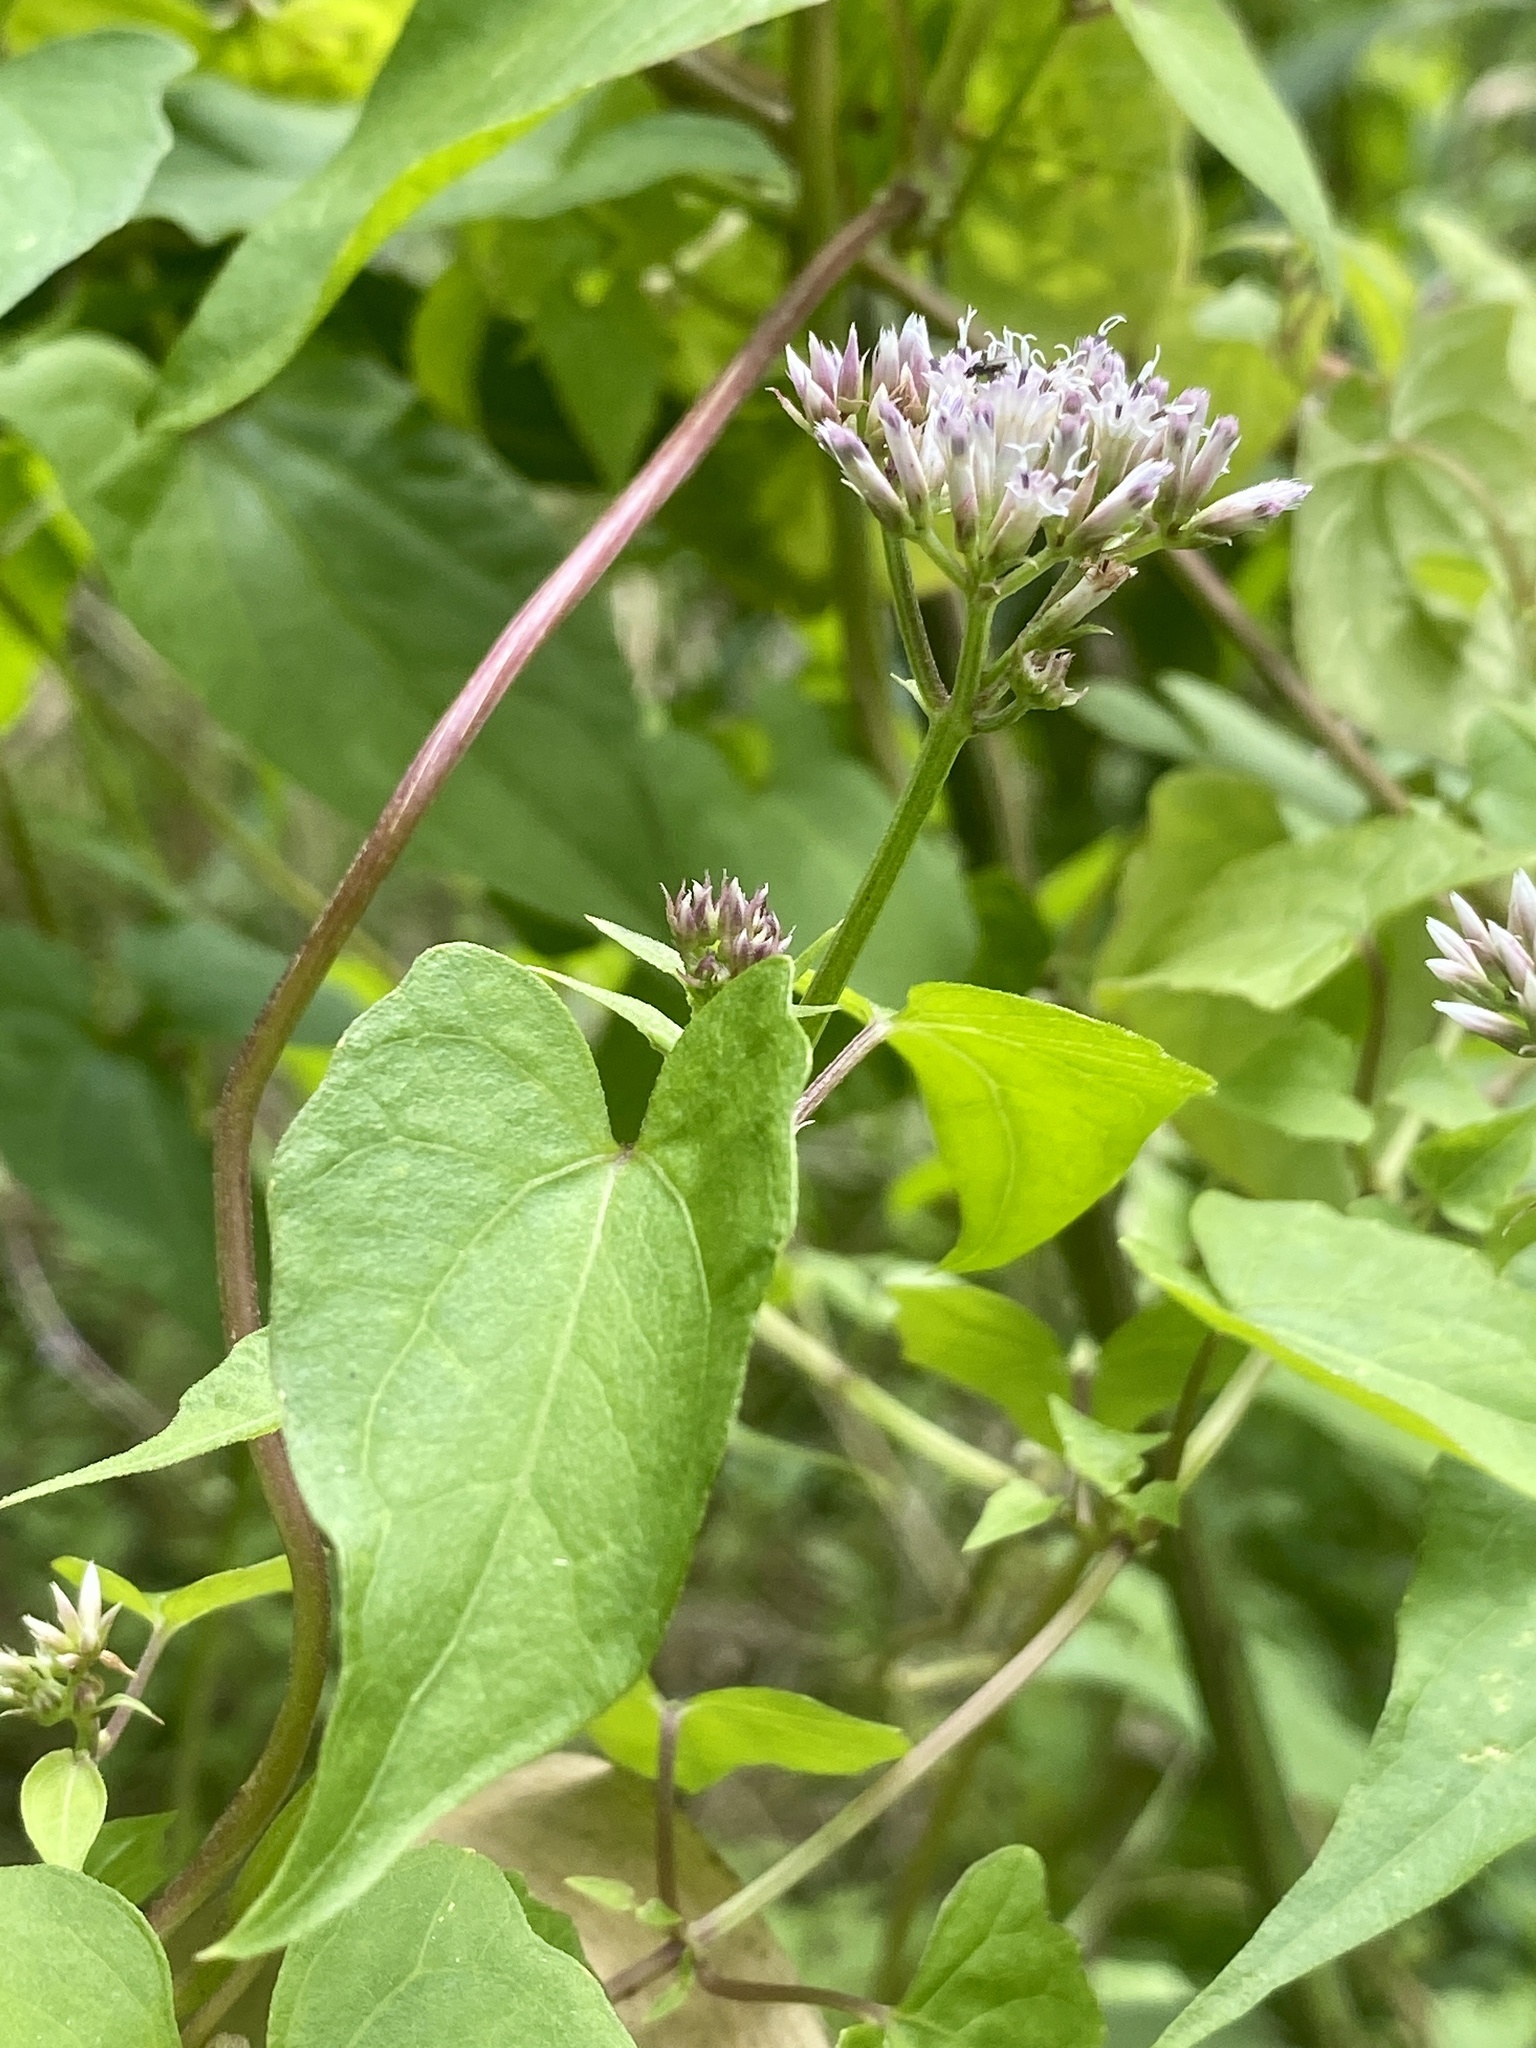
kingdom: Plantae
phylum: Tracheophyta
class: Magnoliopsida
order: Asterales
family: Asteraceae
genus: Mikania
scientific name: Mikania scandens
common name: Climbing hempvine
